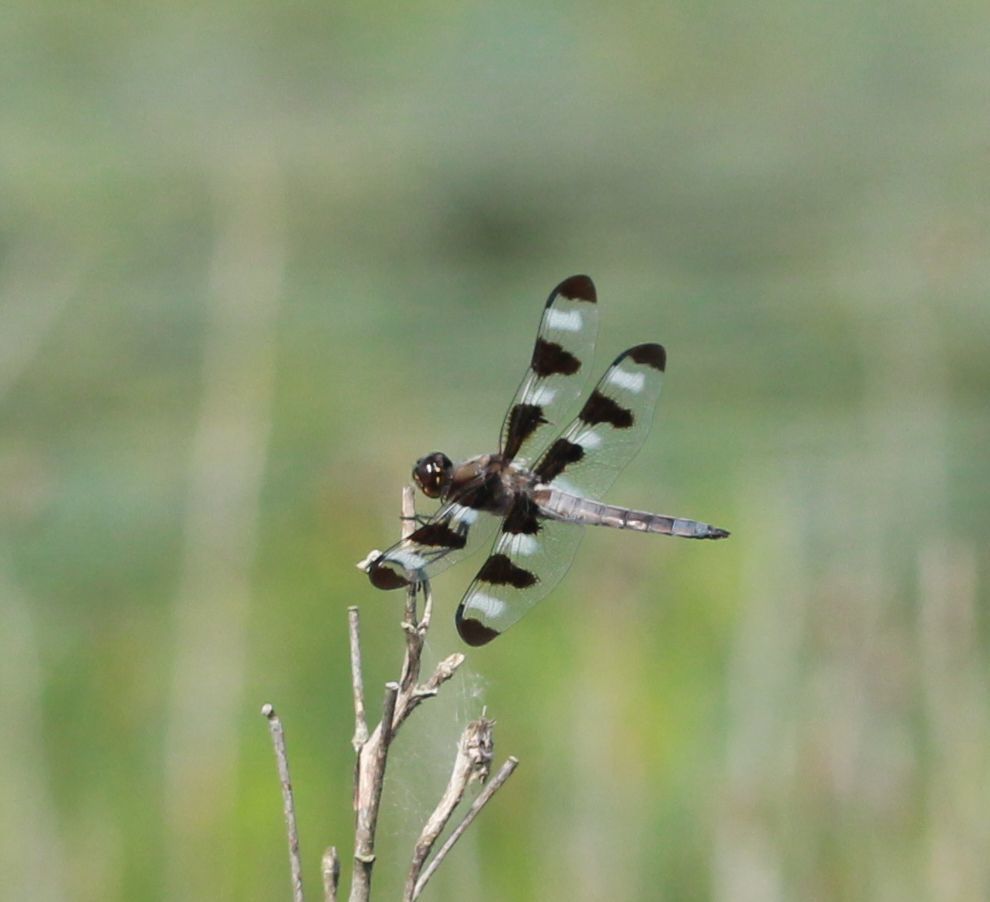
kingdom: Animalia
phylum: Arthropoda
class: Insecta
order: Odonata
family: Libellulidae
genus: Libellula
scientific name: Libellula pulchella
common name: Twelve-spotted skimmer
